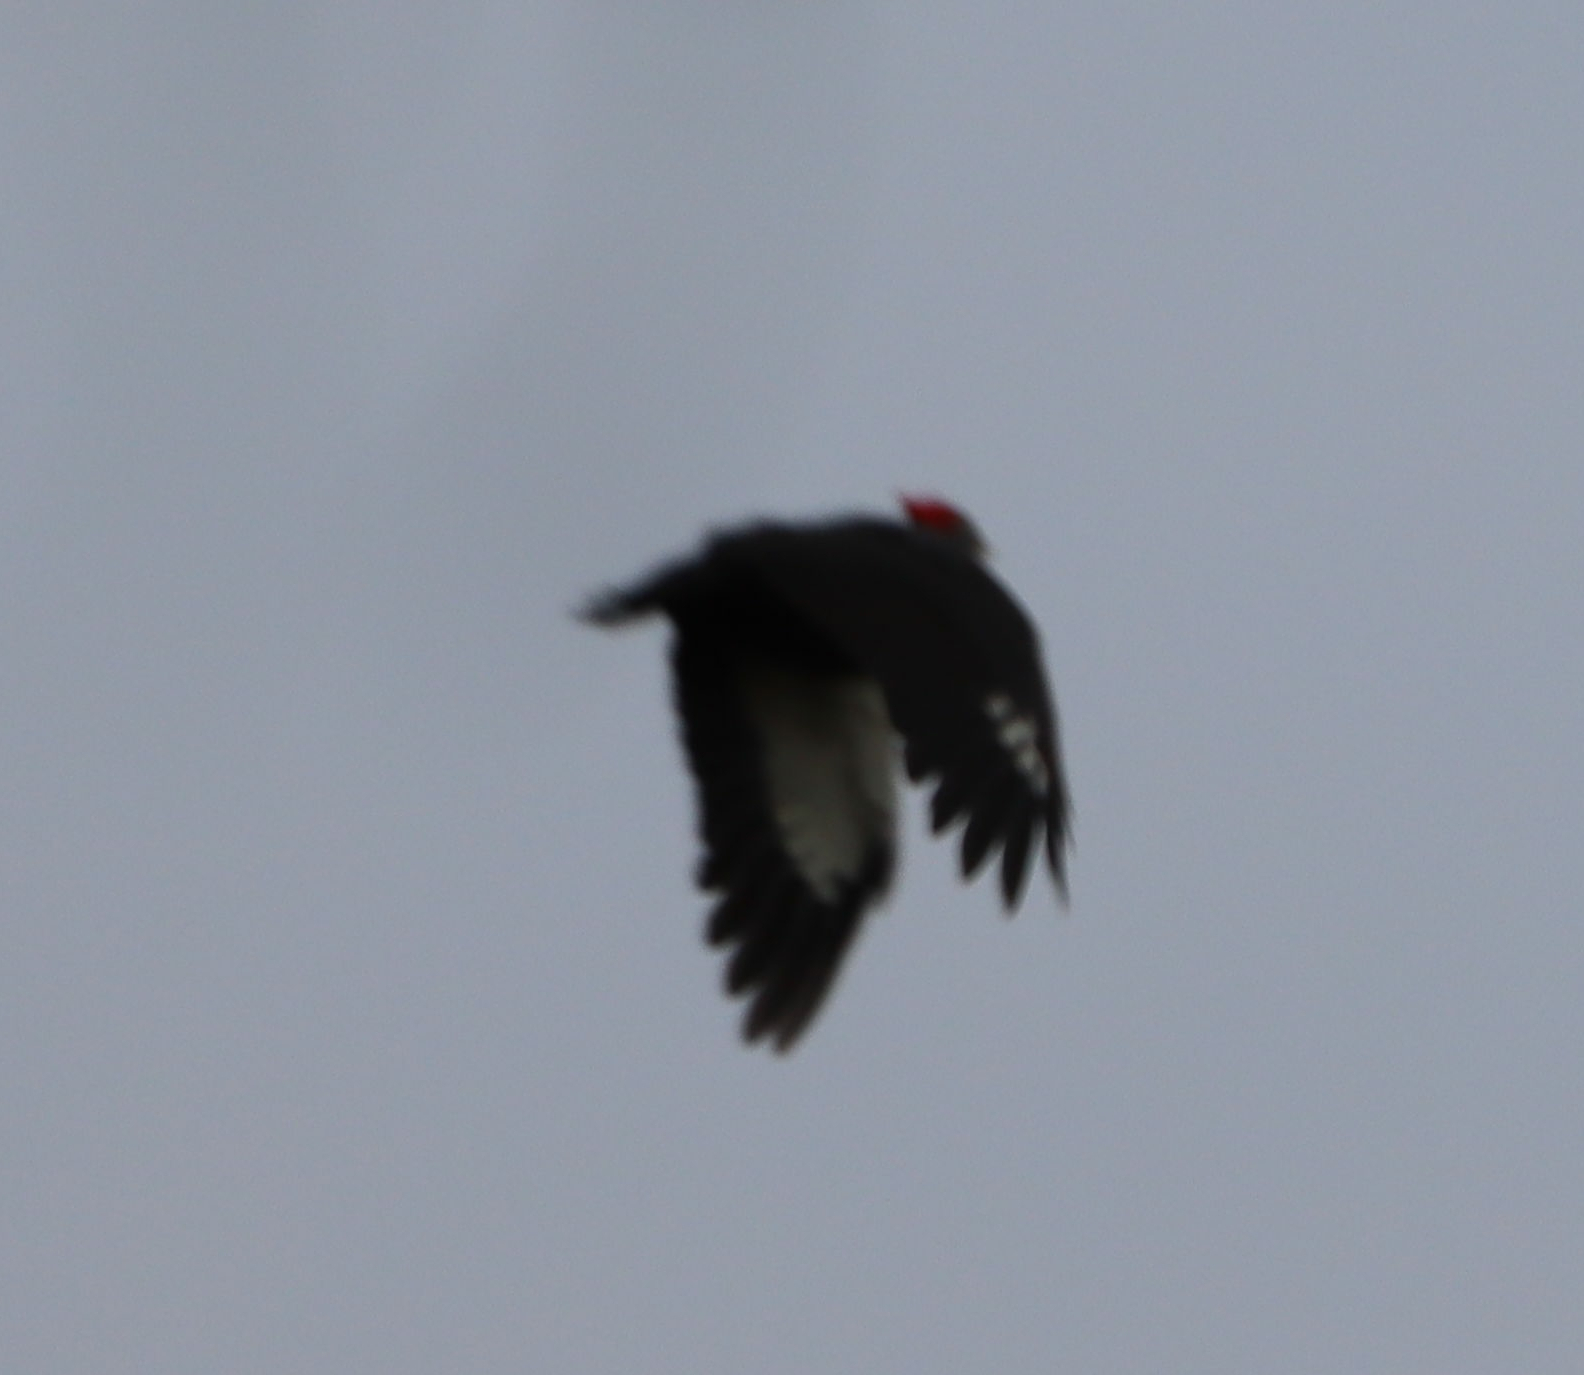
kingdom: Animalia
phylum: Chordata
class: Aves
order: Piciformes
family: Picidae
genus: Dryocopus
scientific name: Dryocopus pileatus
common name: Pileated woodpecker
